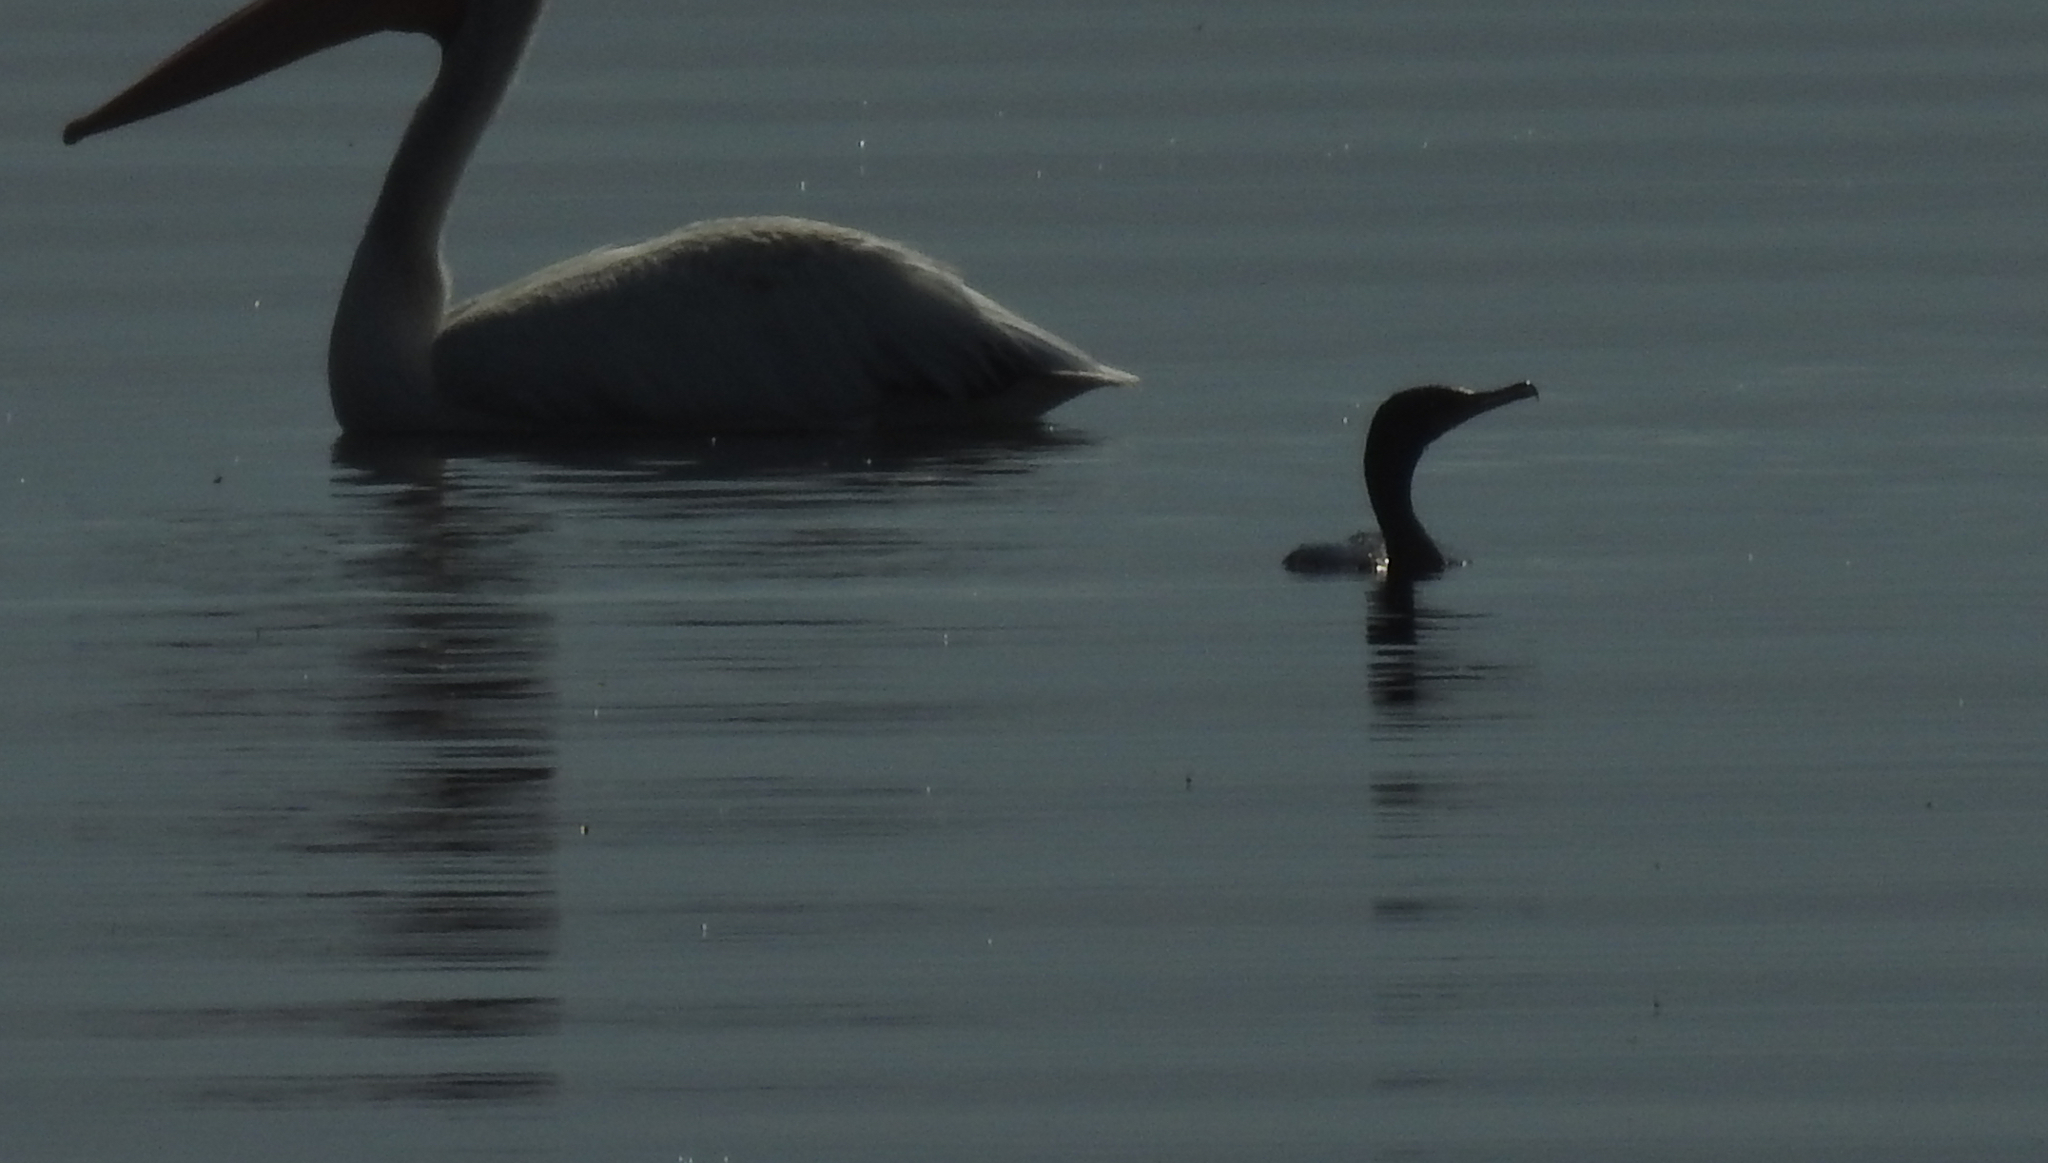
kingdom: Animalia
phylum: Chordata
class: Aves
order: Suliformes
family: Phalacrocoracidae
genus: Phalacrocorax
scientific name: Phalacrocorax auritus
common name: Double-crested cormorant
